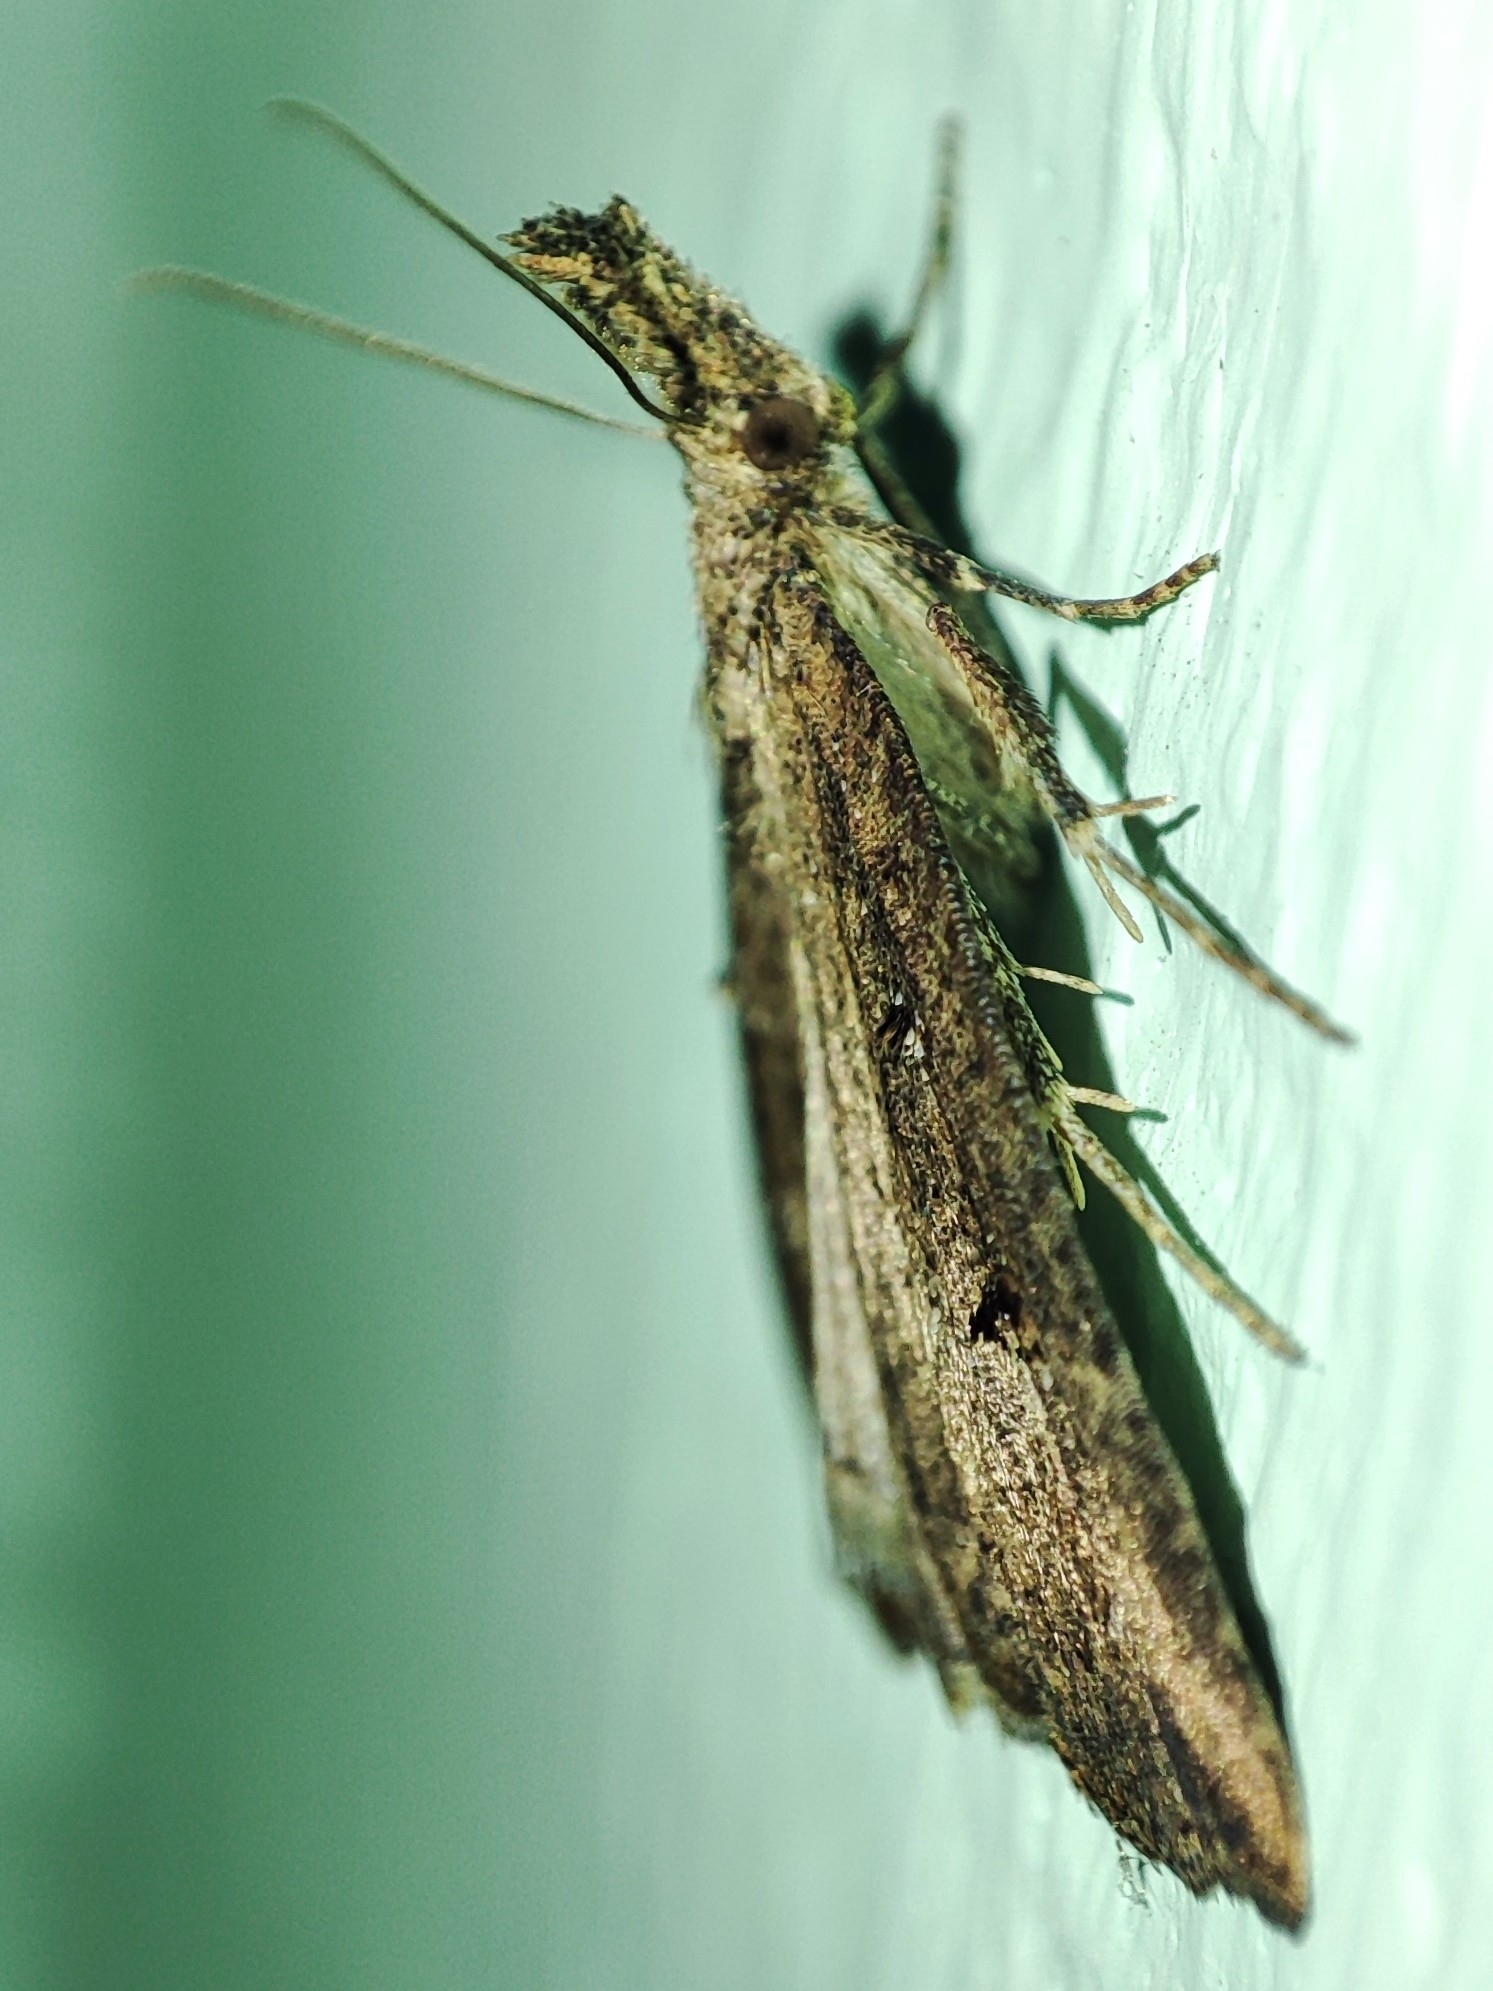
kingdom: Animalia
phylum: Arthropoda
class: Insecta
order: Lepidoptera
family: Erebidae
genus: Hypena
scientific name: Hypena rostralis
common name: Buttoned snout
